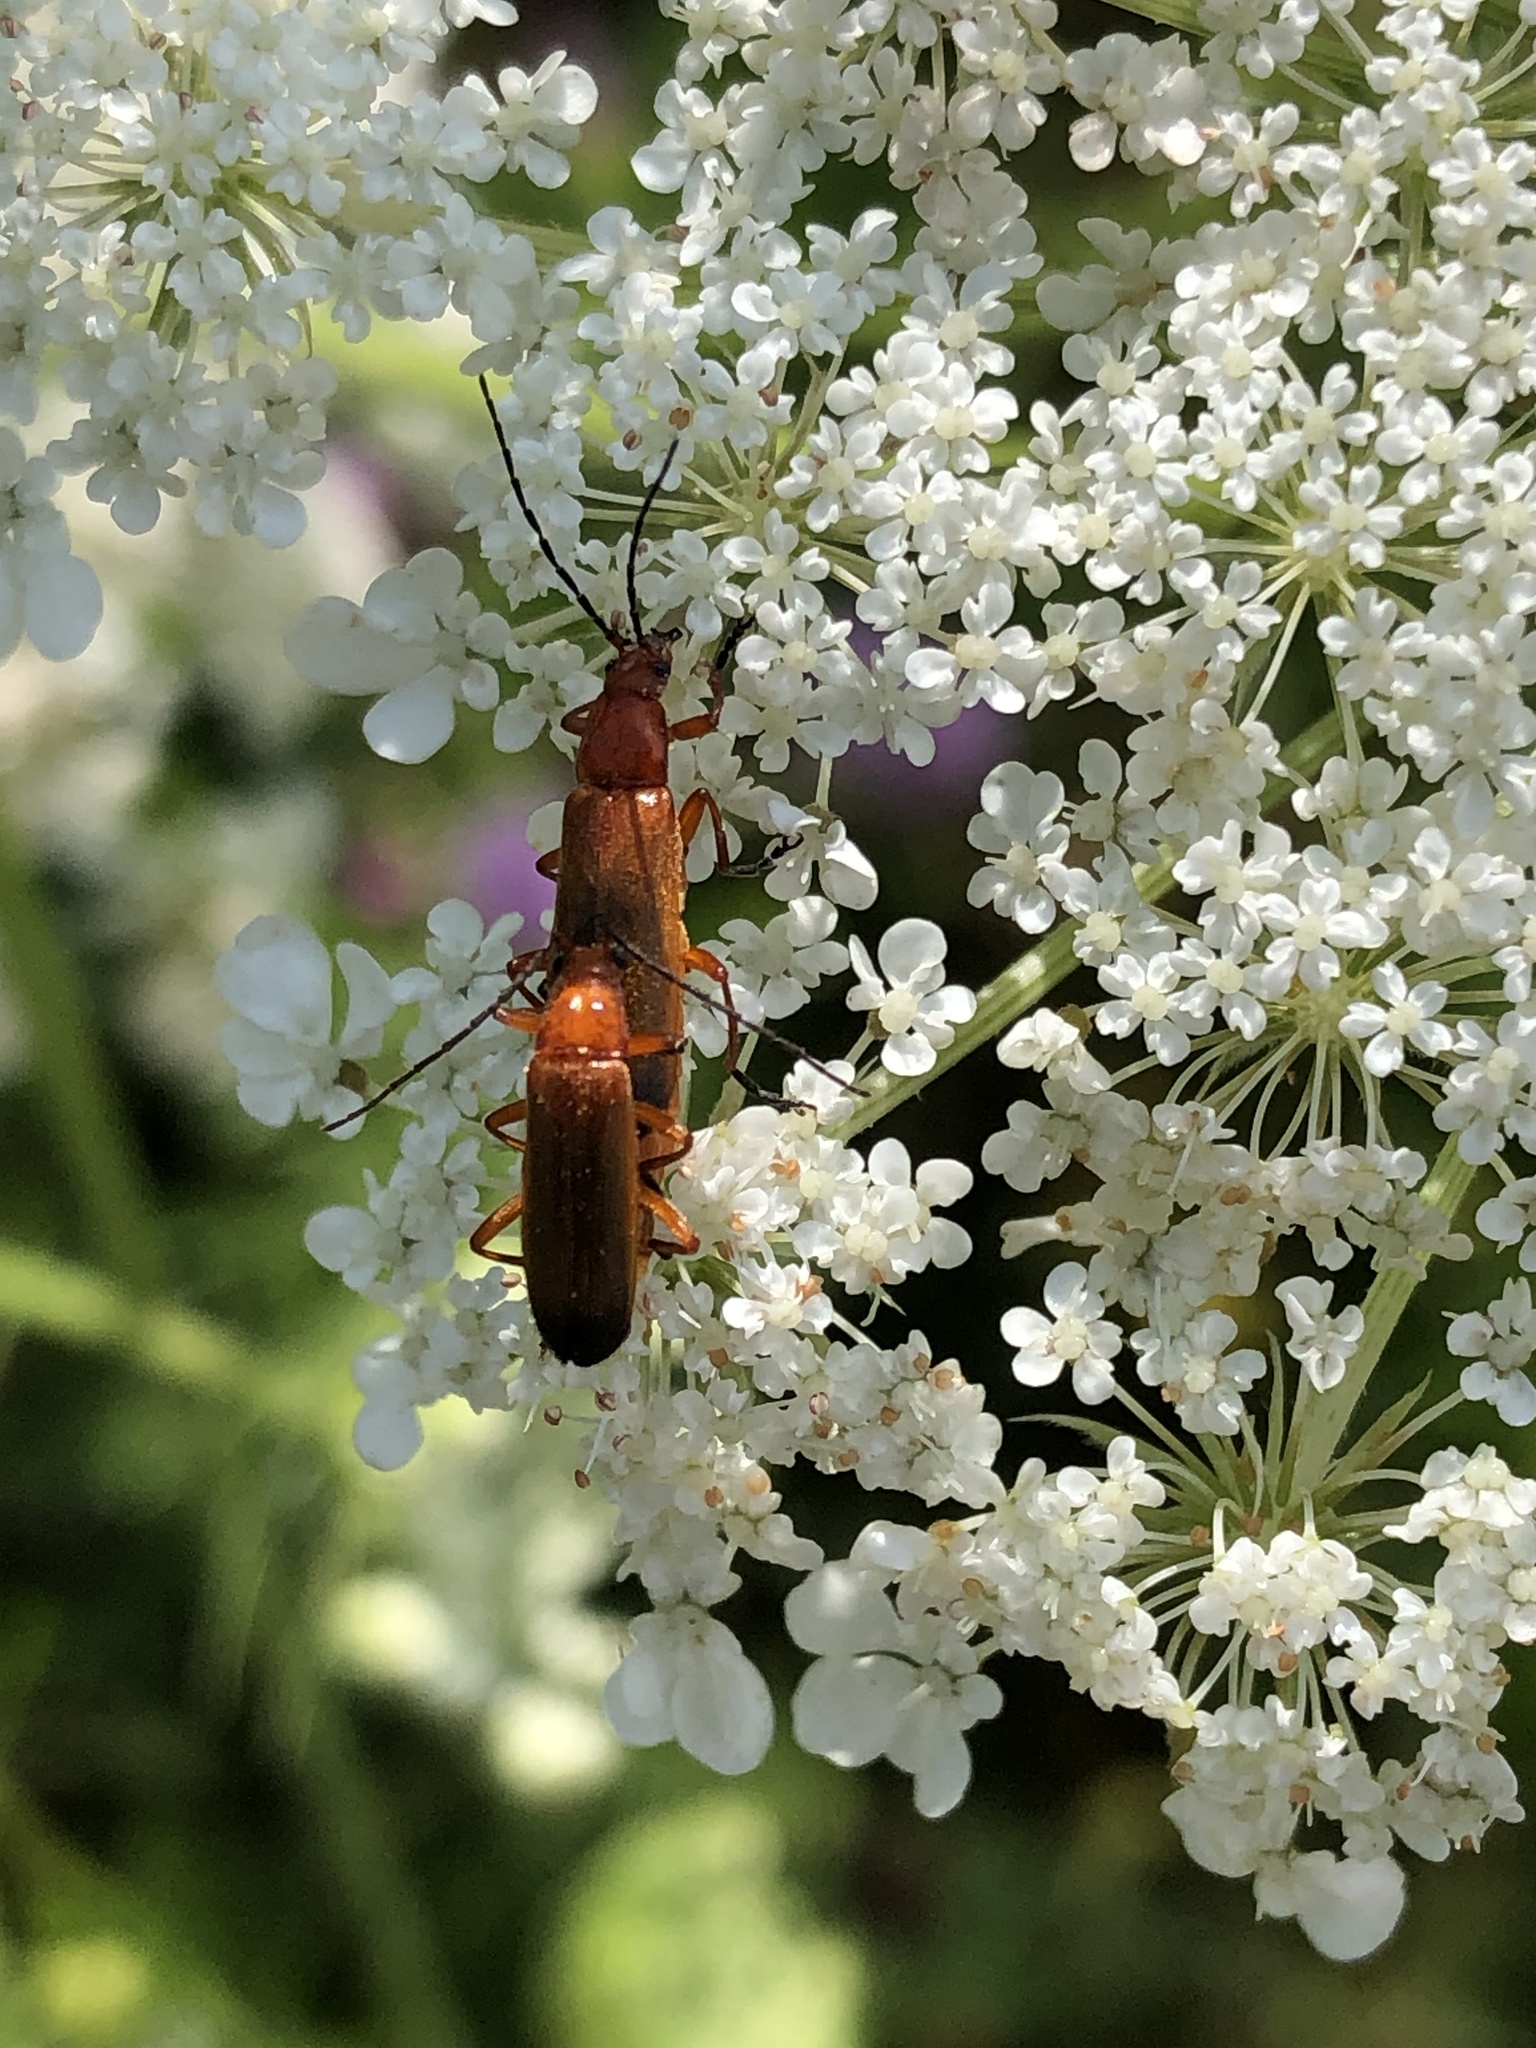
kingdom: Animalia
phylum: Arthropoda
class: Insecta
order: Coleoptera
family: Cantharidae
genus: Rhagonycha
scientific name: Rhagonycha fulva
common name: Common red soldier beetle
